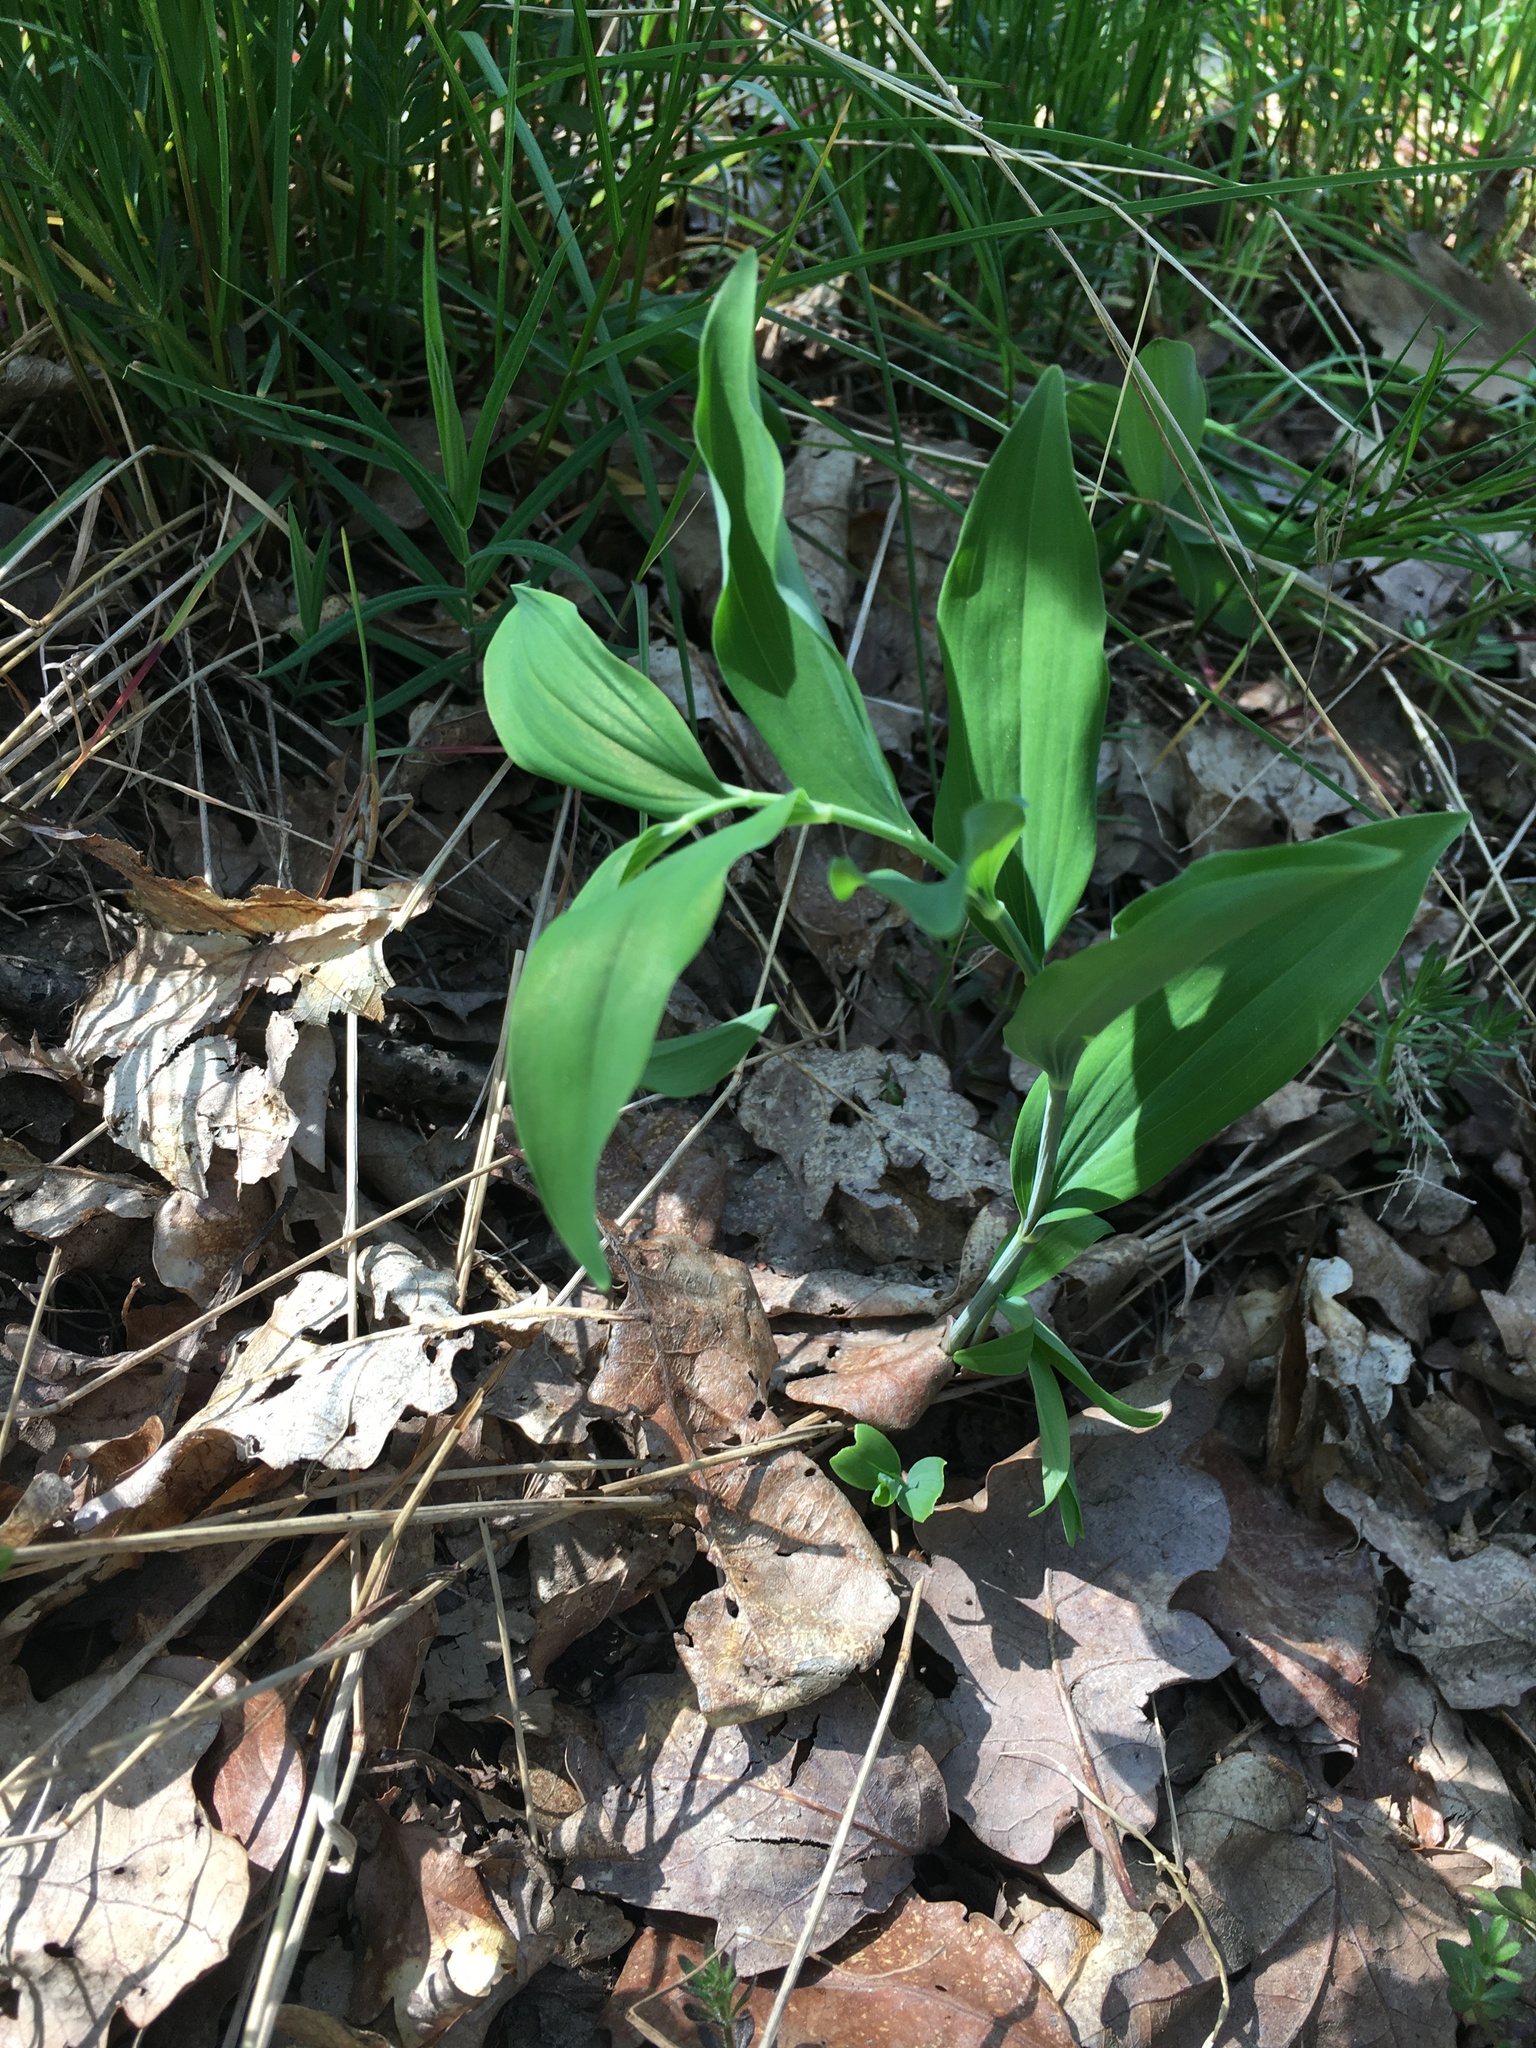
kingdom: Plantae
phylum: Tracheophyta
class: Liliopsida
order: Asparagales
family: Asparagaceae
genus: Polygonatum
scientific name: Polygonatum multiflorum
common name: Solomon's-seal
